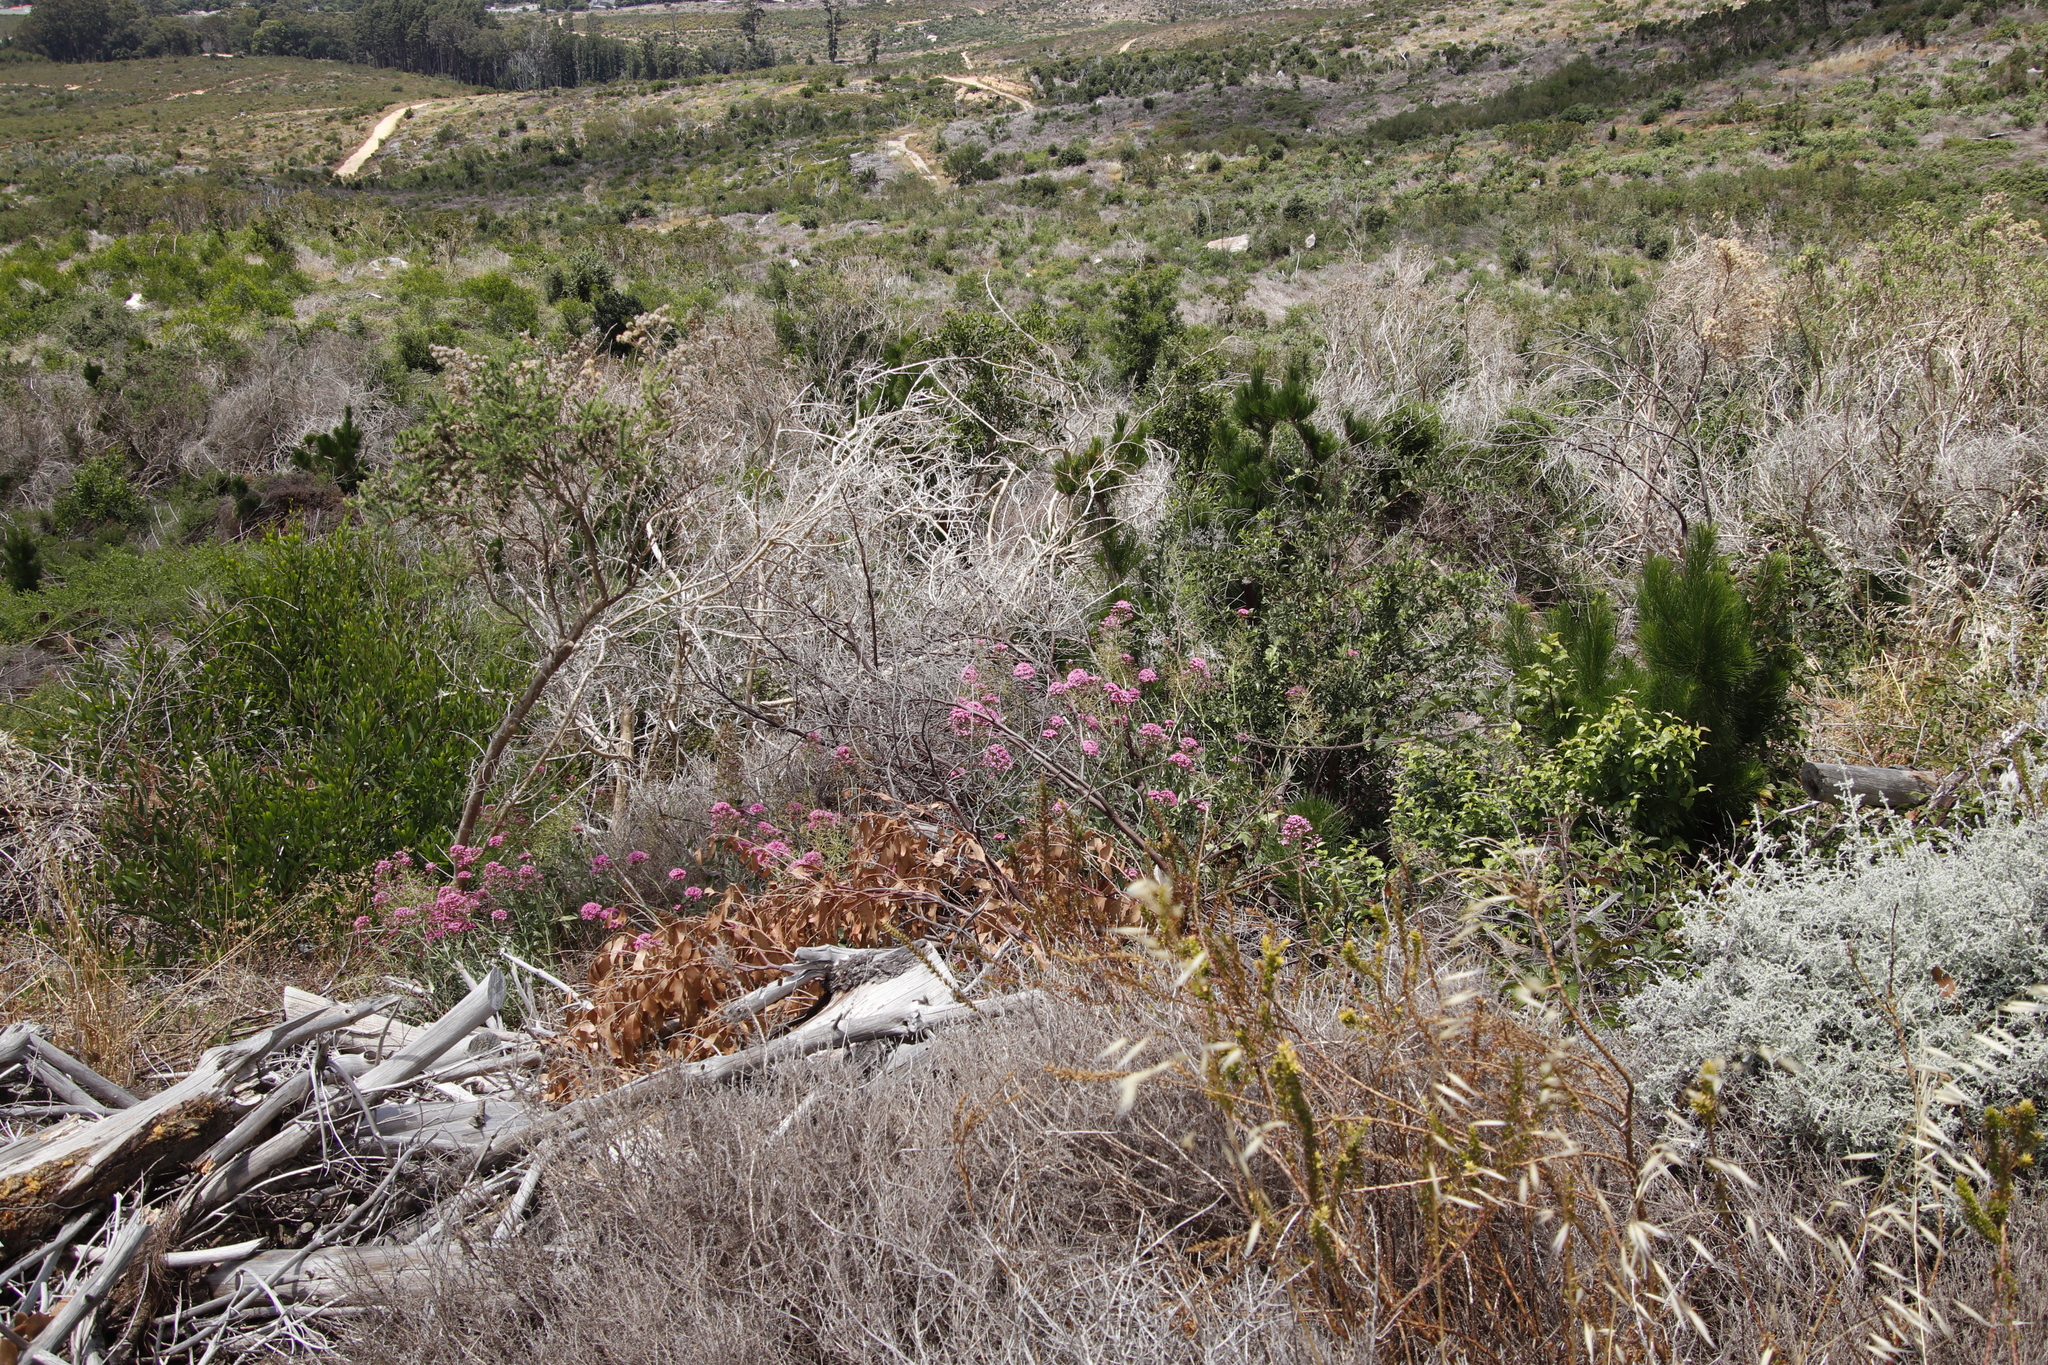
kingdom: Plantae
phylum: Tracheophyta
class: Magnoliopsida
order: Dipsacales
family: Caprifoliaceae
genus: Centranthus
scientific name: Centranthus ruber
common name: Red valerian
